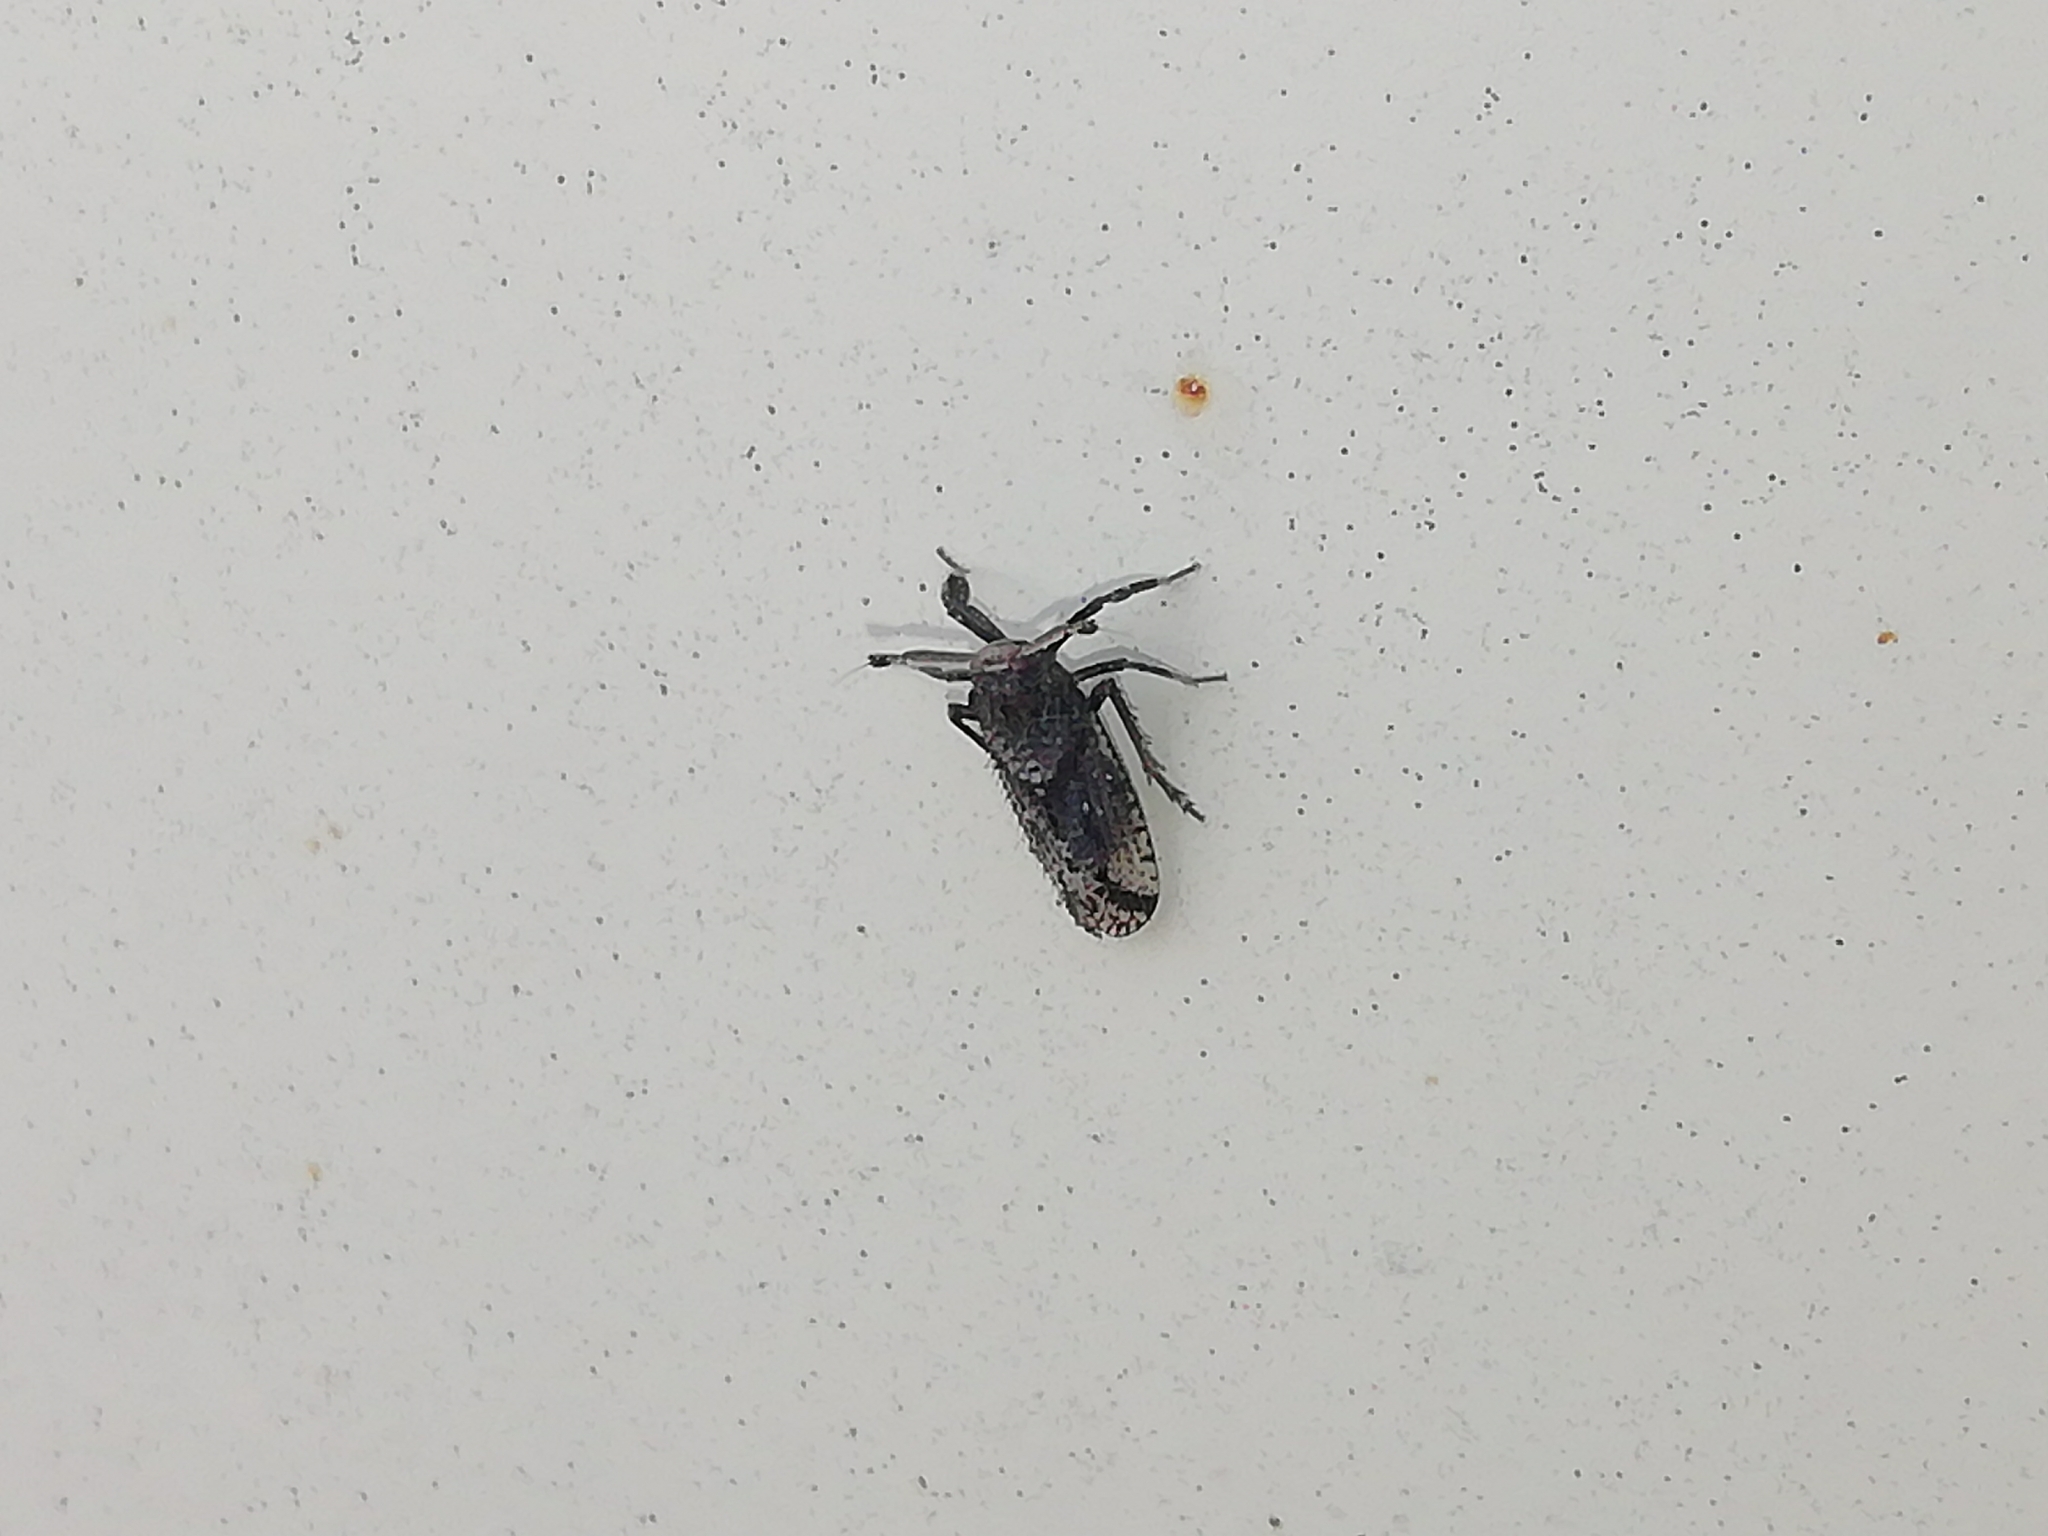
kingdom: Animalia
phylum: Arthropoda
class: Insecta
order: Hemiptera
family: Delphacidae
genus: Asiraca
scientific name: Asiraca clavicornis
